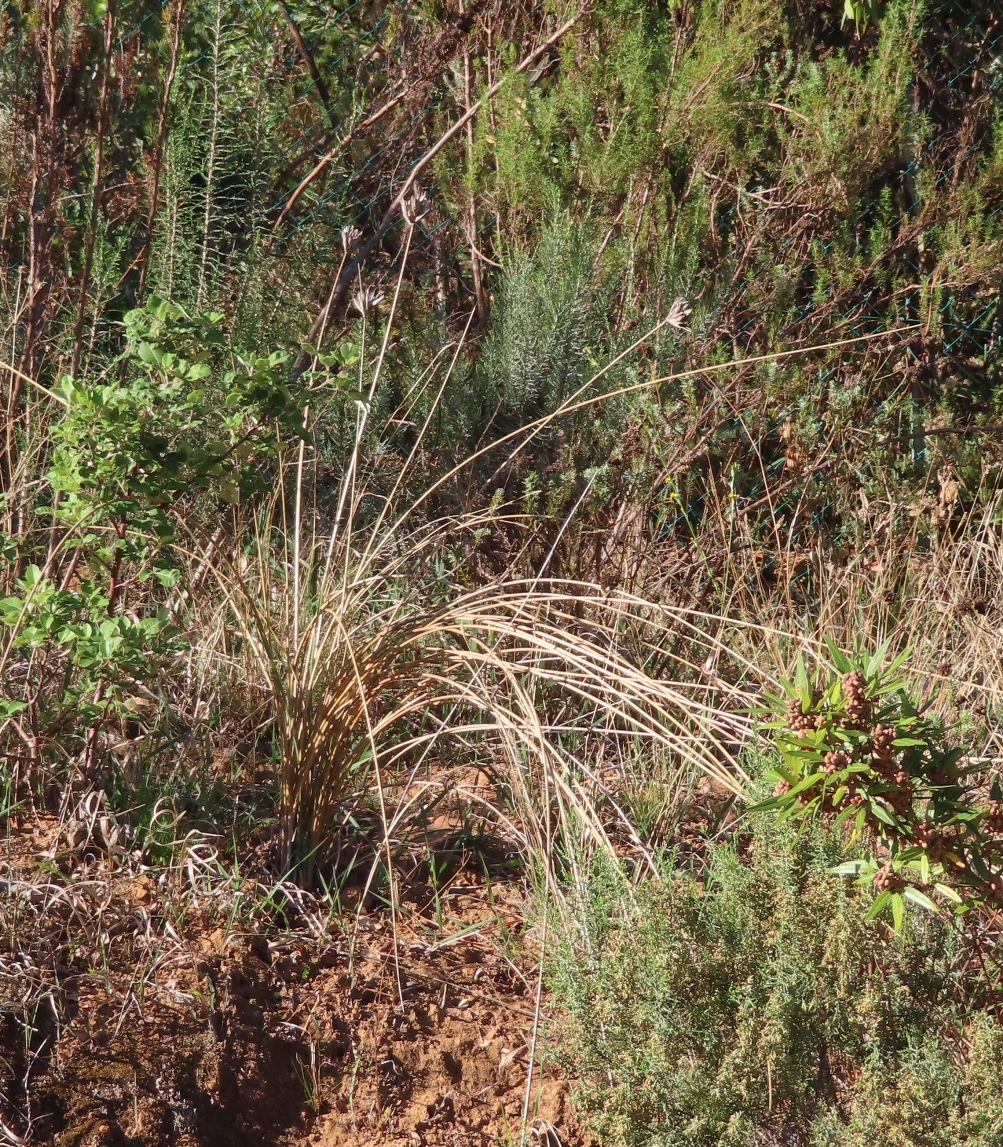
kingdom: Plantae
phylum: Tracheophyta
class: Liliopsida
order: Asparagales
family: Iridaceae
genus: Bobartia
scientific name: Bobartia indica
